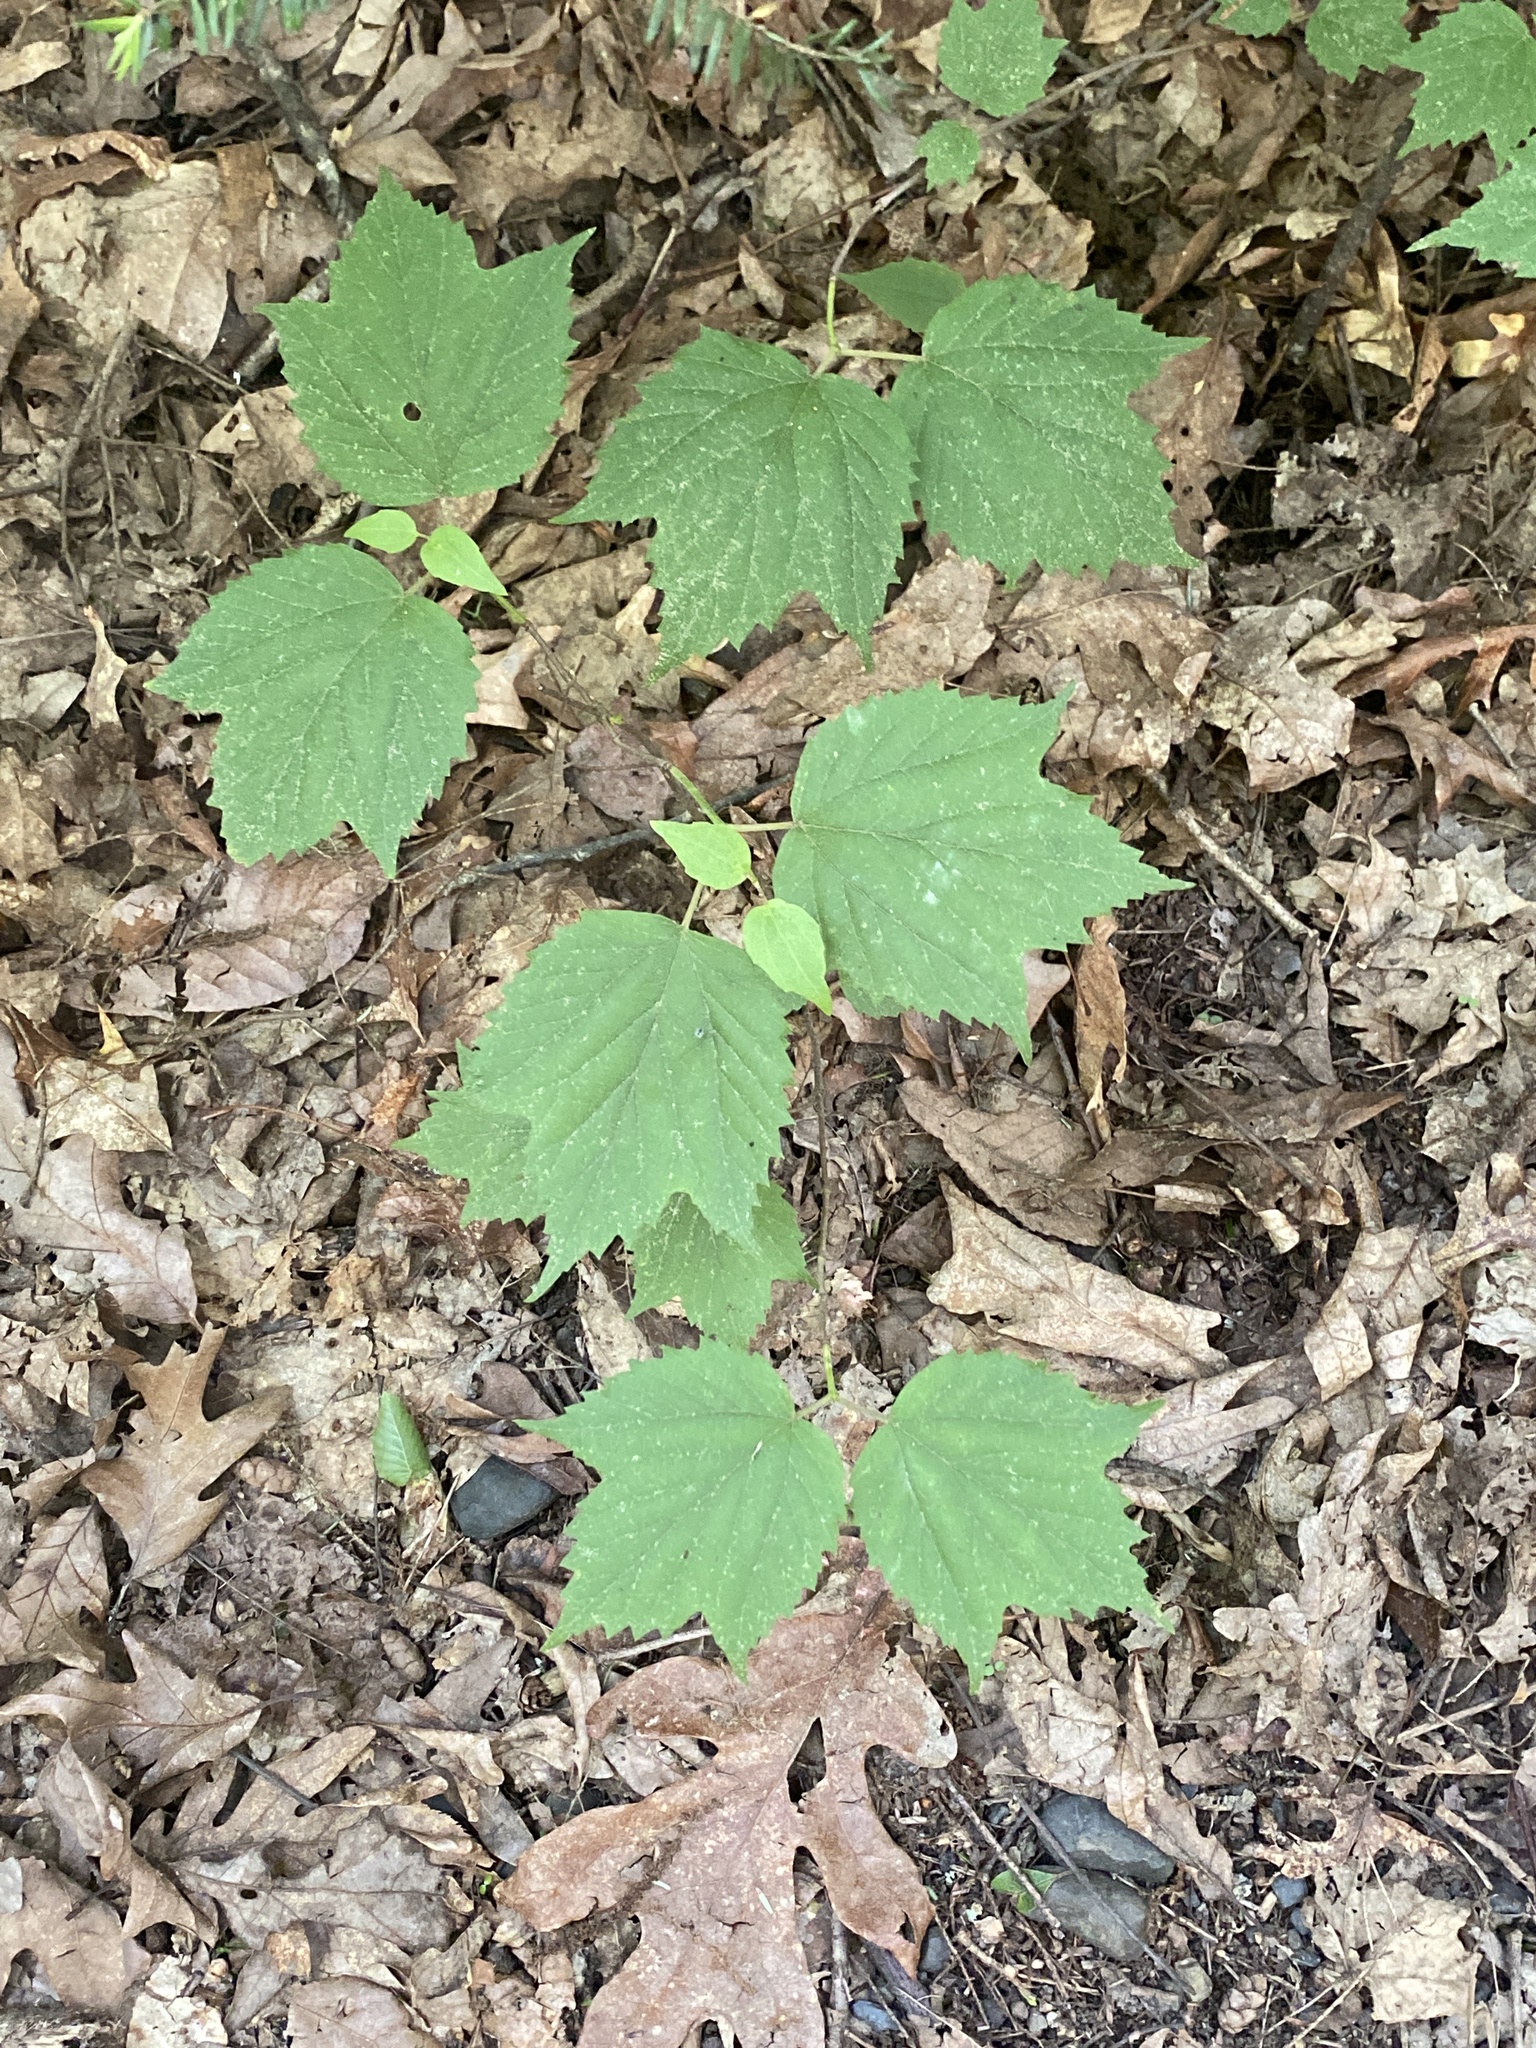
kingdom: Plantae
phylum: Tracheophyta
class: Magnoliopsida
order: Dipsacales
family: Viburnaceae
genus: Viburnum
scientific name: Viburnum acerifolium
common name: Dockmackie
